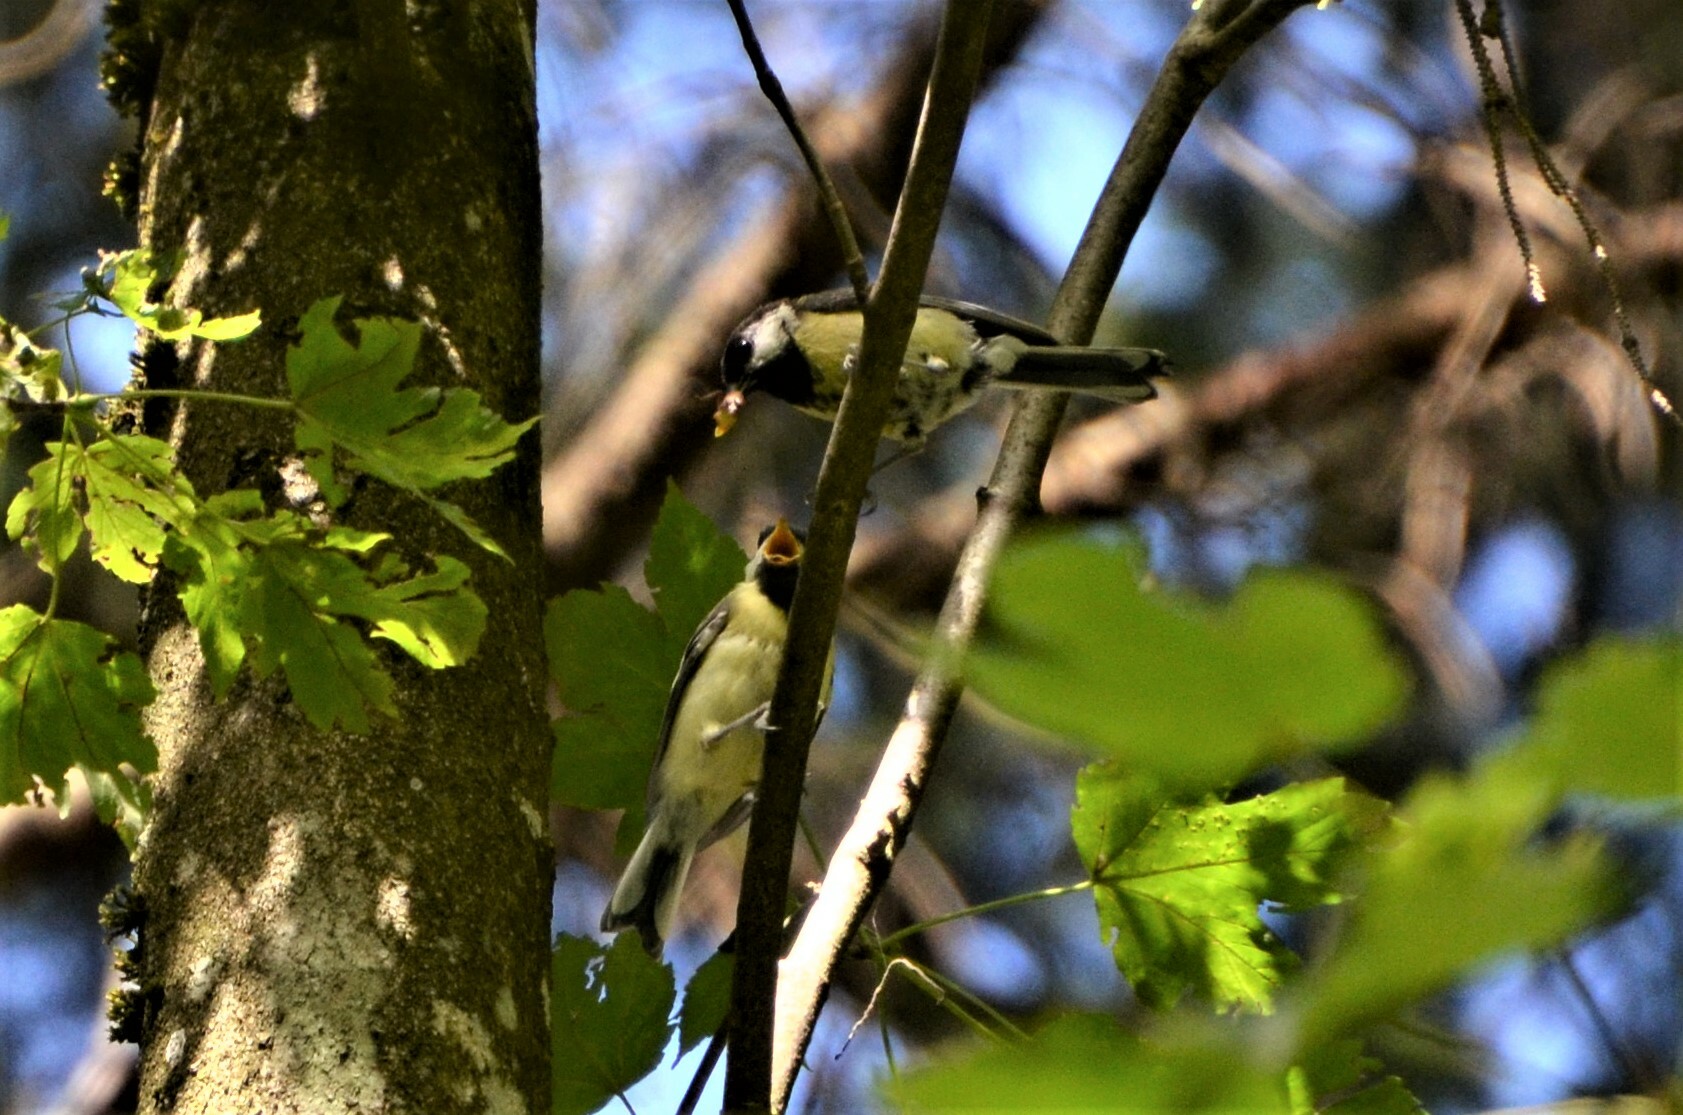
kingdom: Animalia
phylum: Chordata
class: Aves
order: Passeriformes
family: Paridae
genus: Parus
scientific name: Parus major
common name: Great tit
